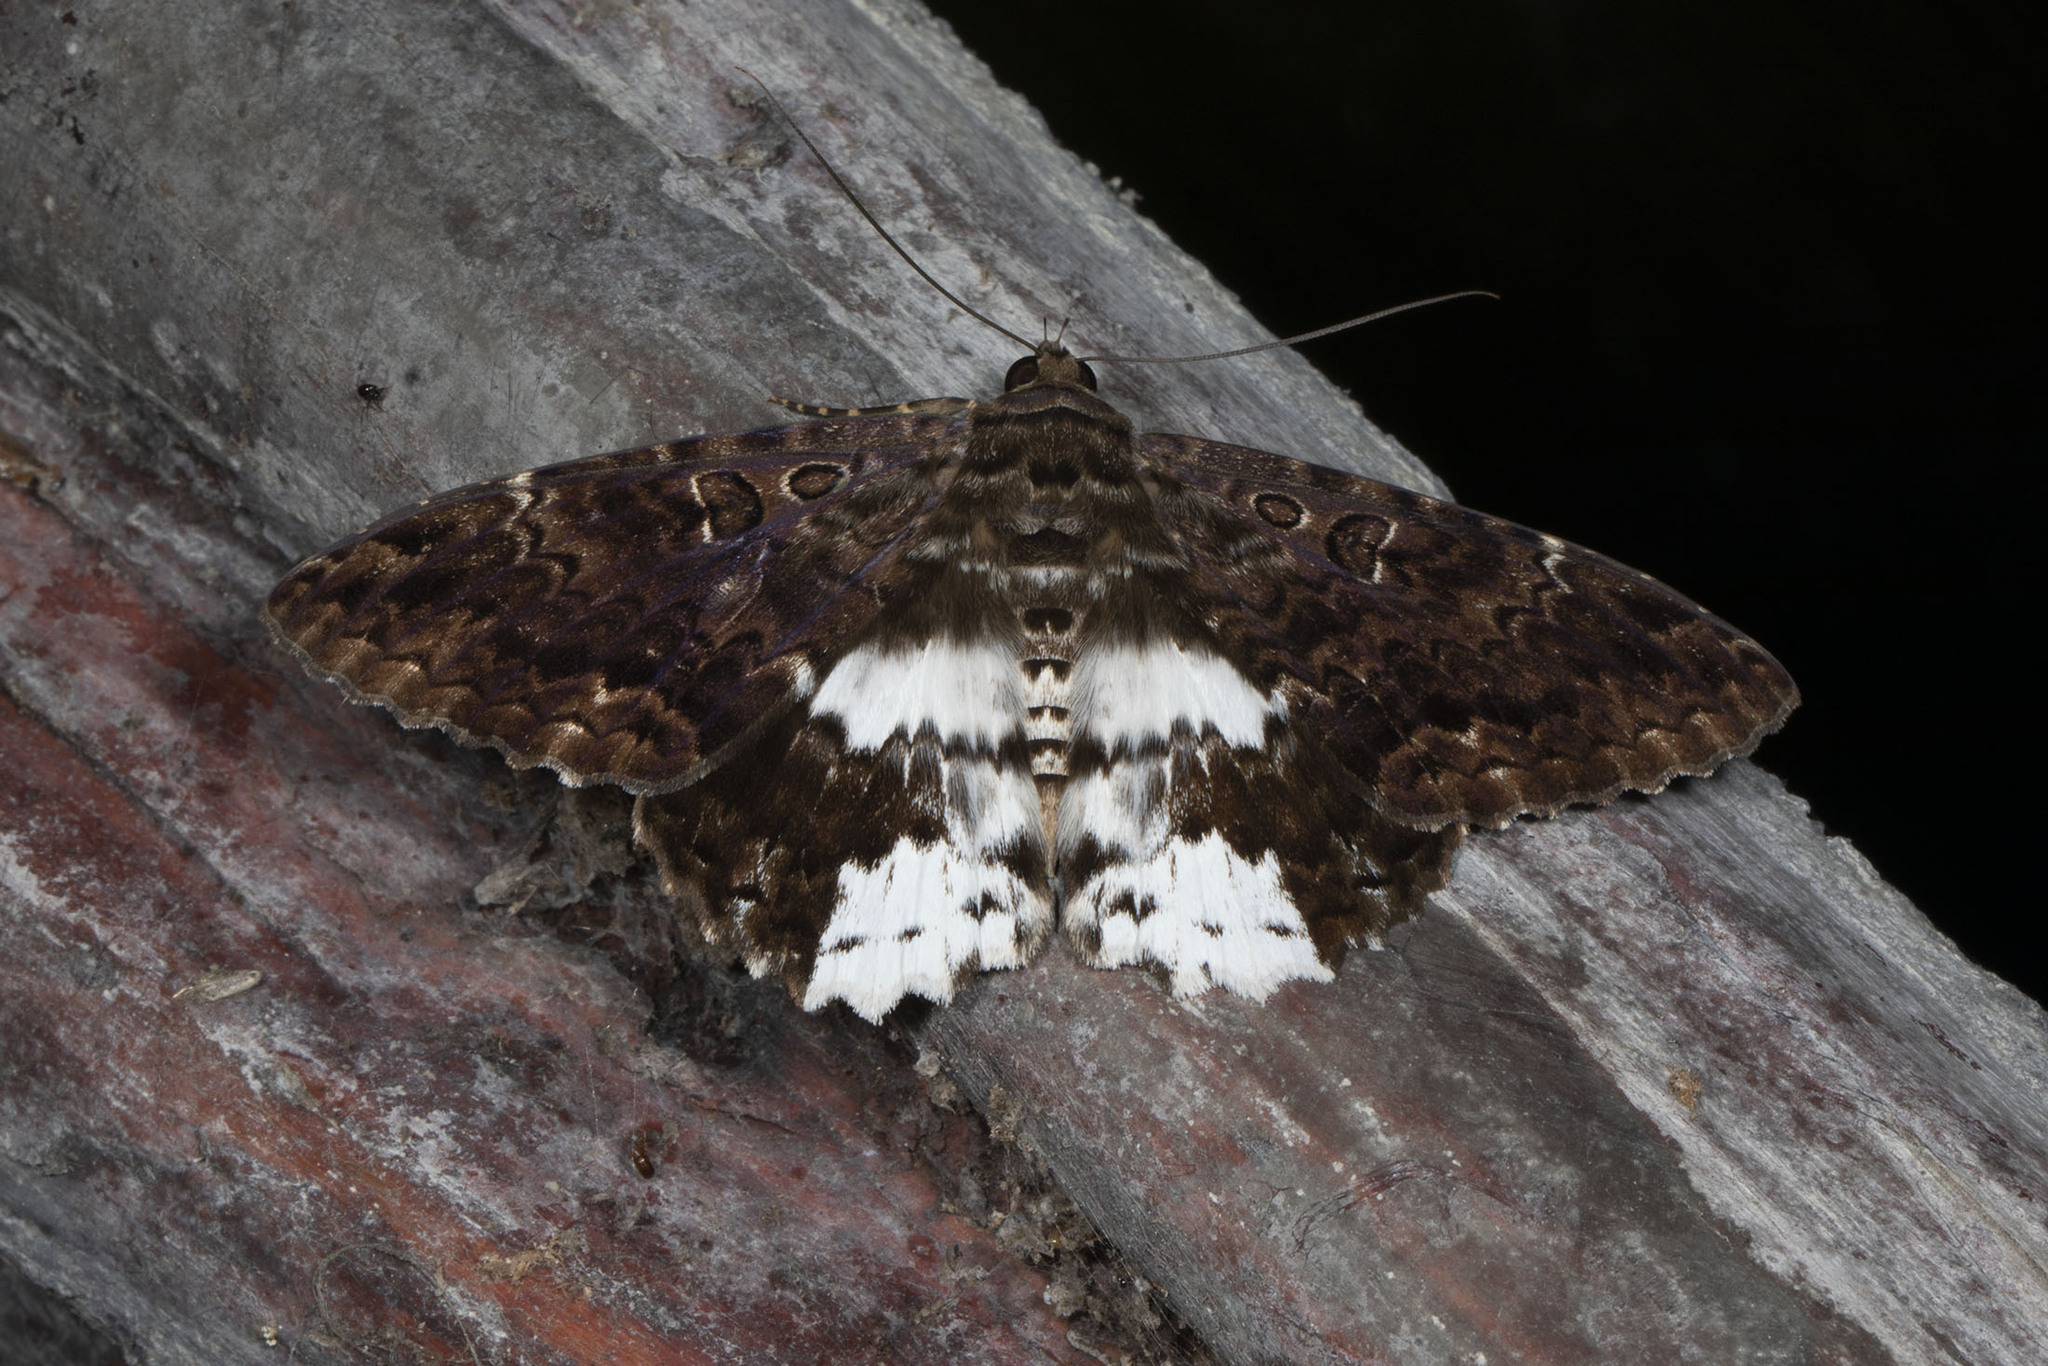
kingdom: Animalia
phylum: Arthropoda
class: Insecta
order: Lepidoptera
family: Erebidae
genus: Feigeria
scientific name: Feigeria
